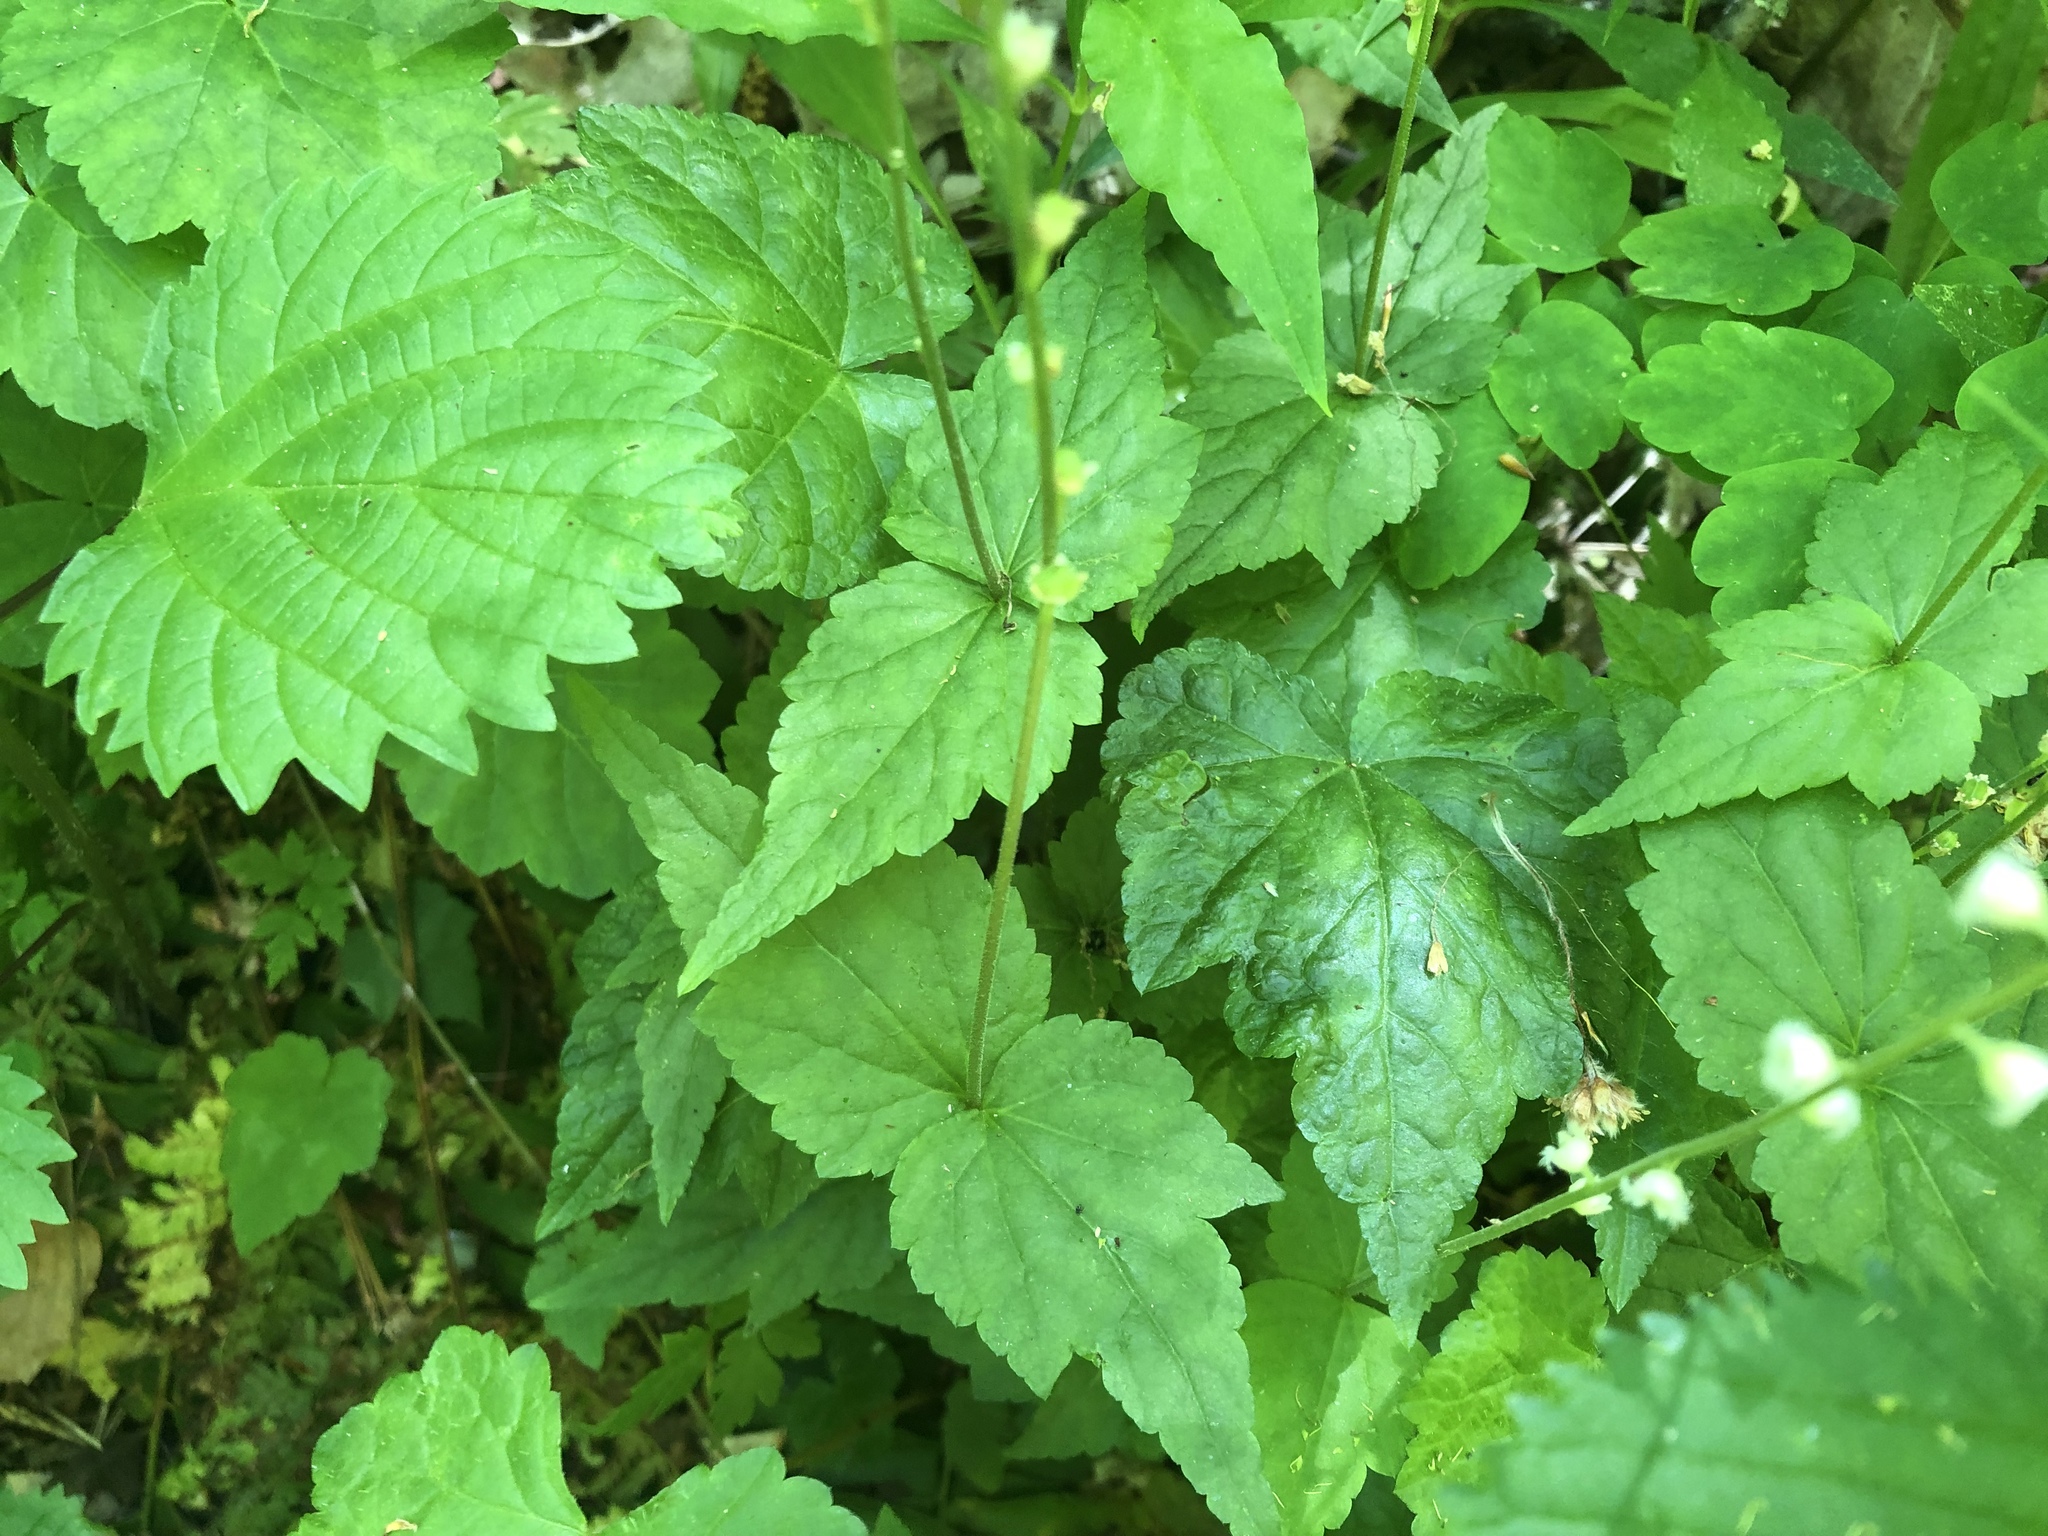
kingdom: Plantae
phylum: Tracheophyta
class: Magnoliopsida
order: Saxifragales
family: Saxifragaceae
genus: Mitella
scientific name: Mitella diphylla
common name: Coolwort
